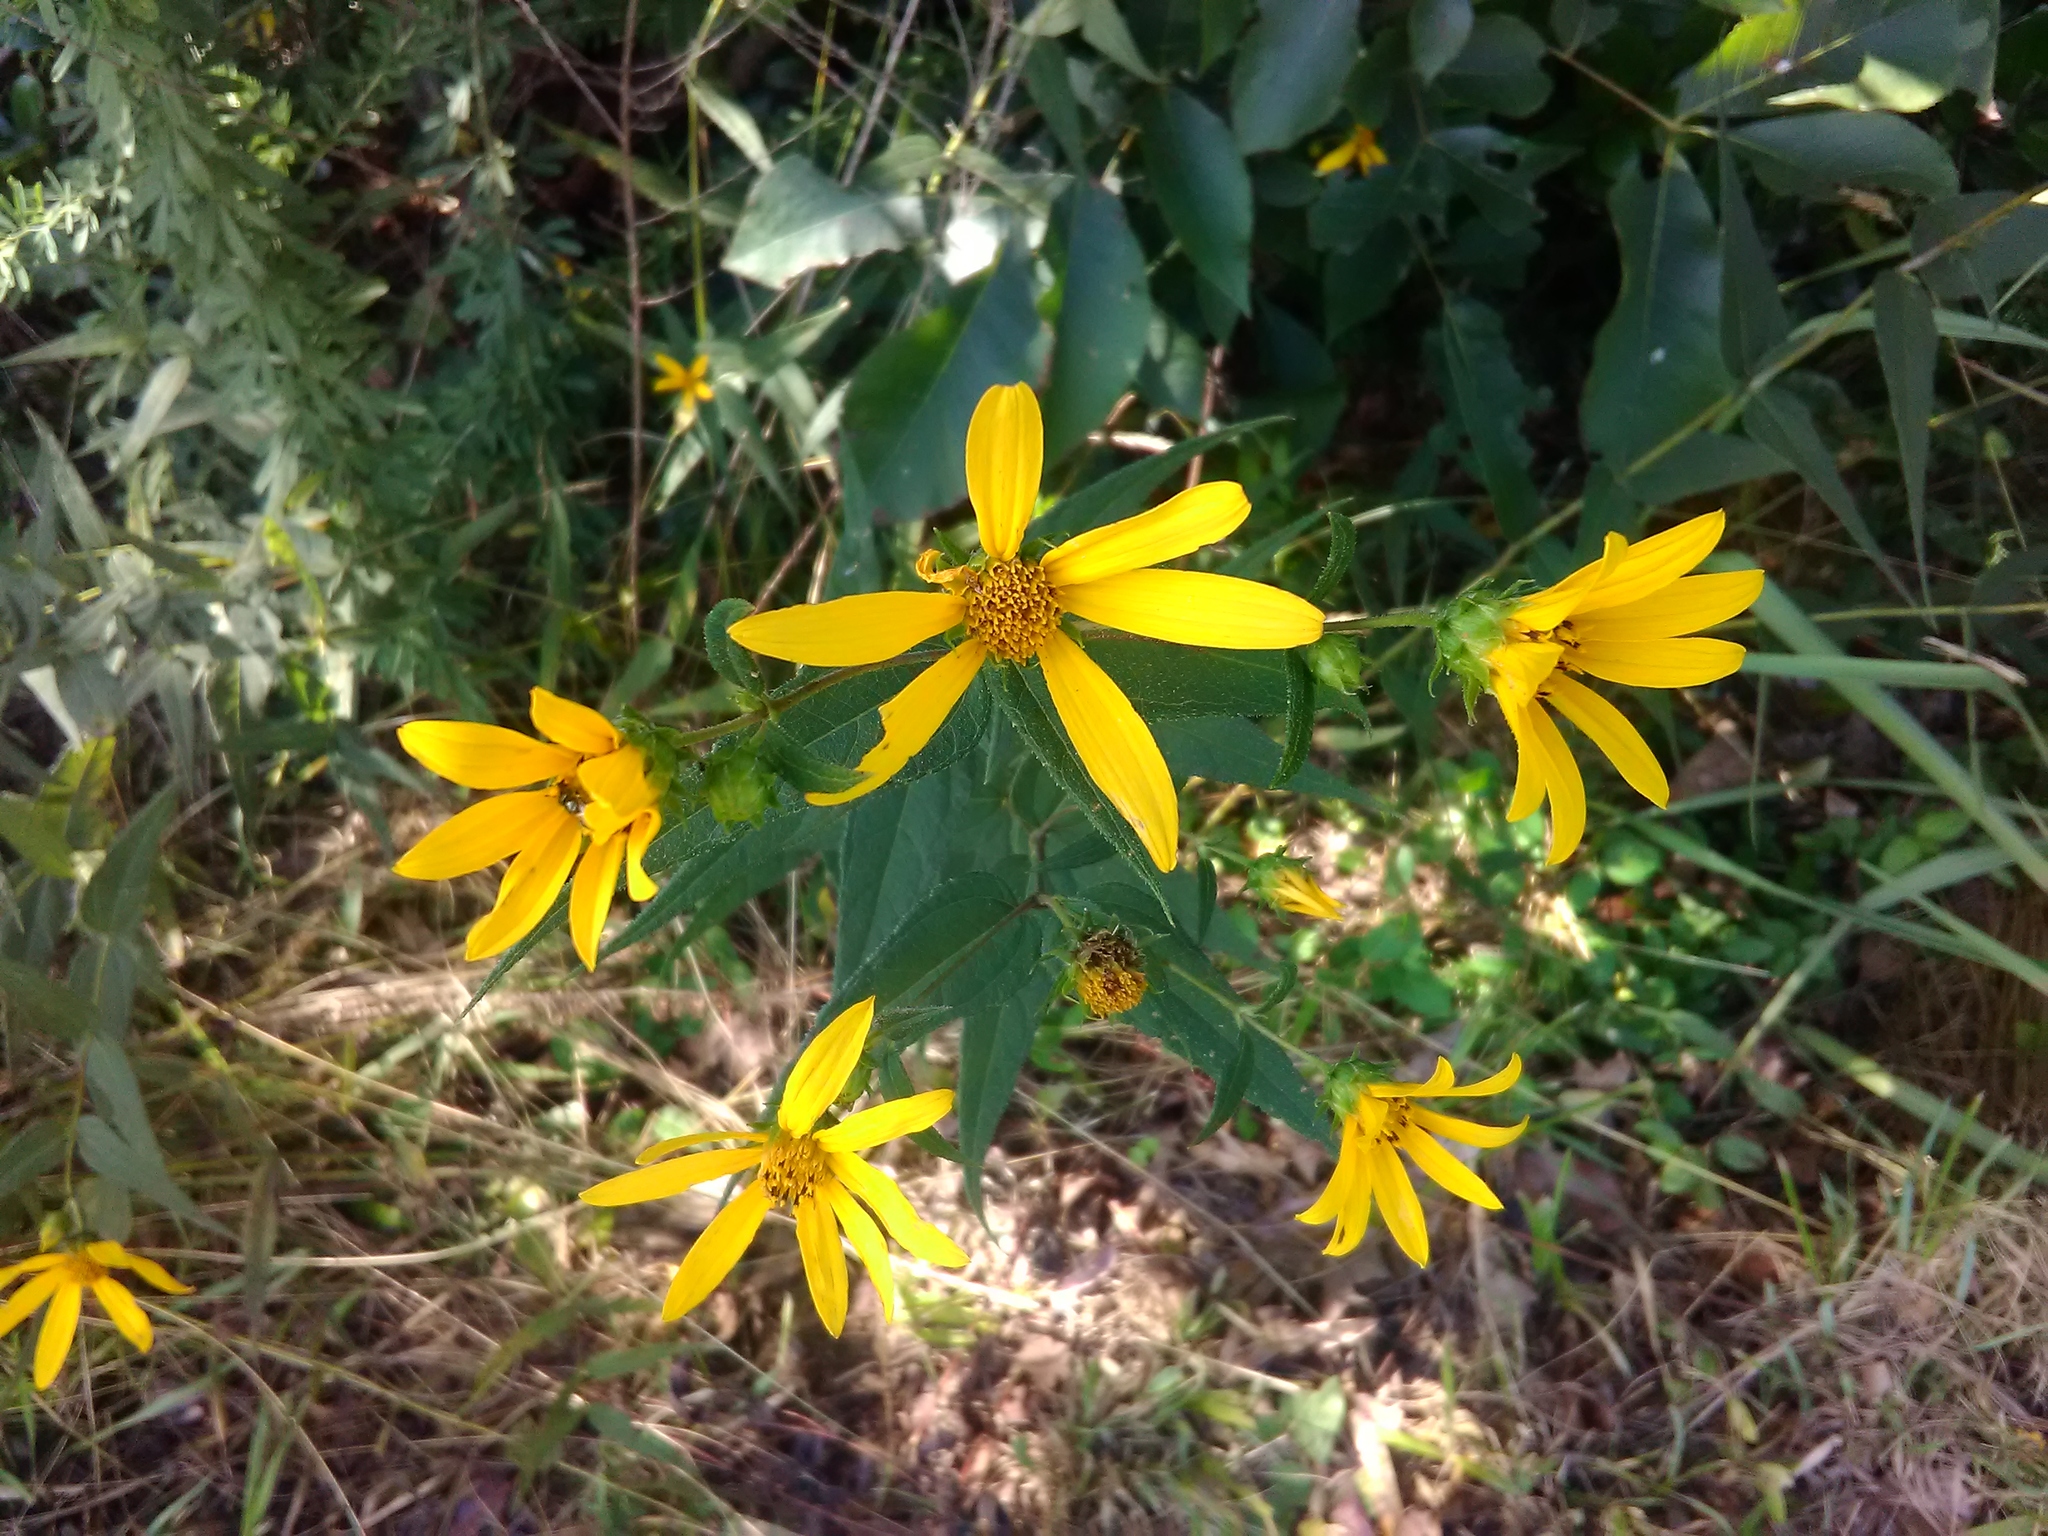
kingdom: Plantae
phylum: Tracheophyta
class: Magnoliopsida
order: Asterales
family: Asteraceae
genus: Helianthus
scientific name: Helianthus divaricatus
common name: Divergent sunflower
